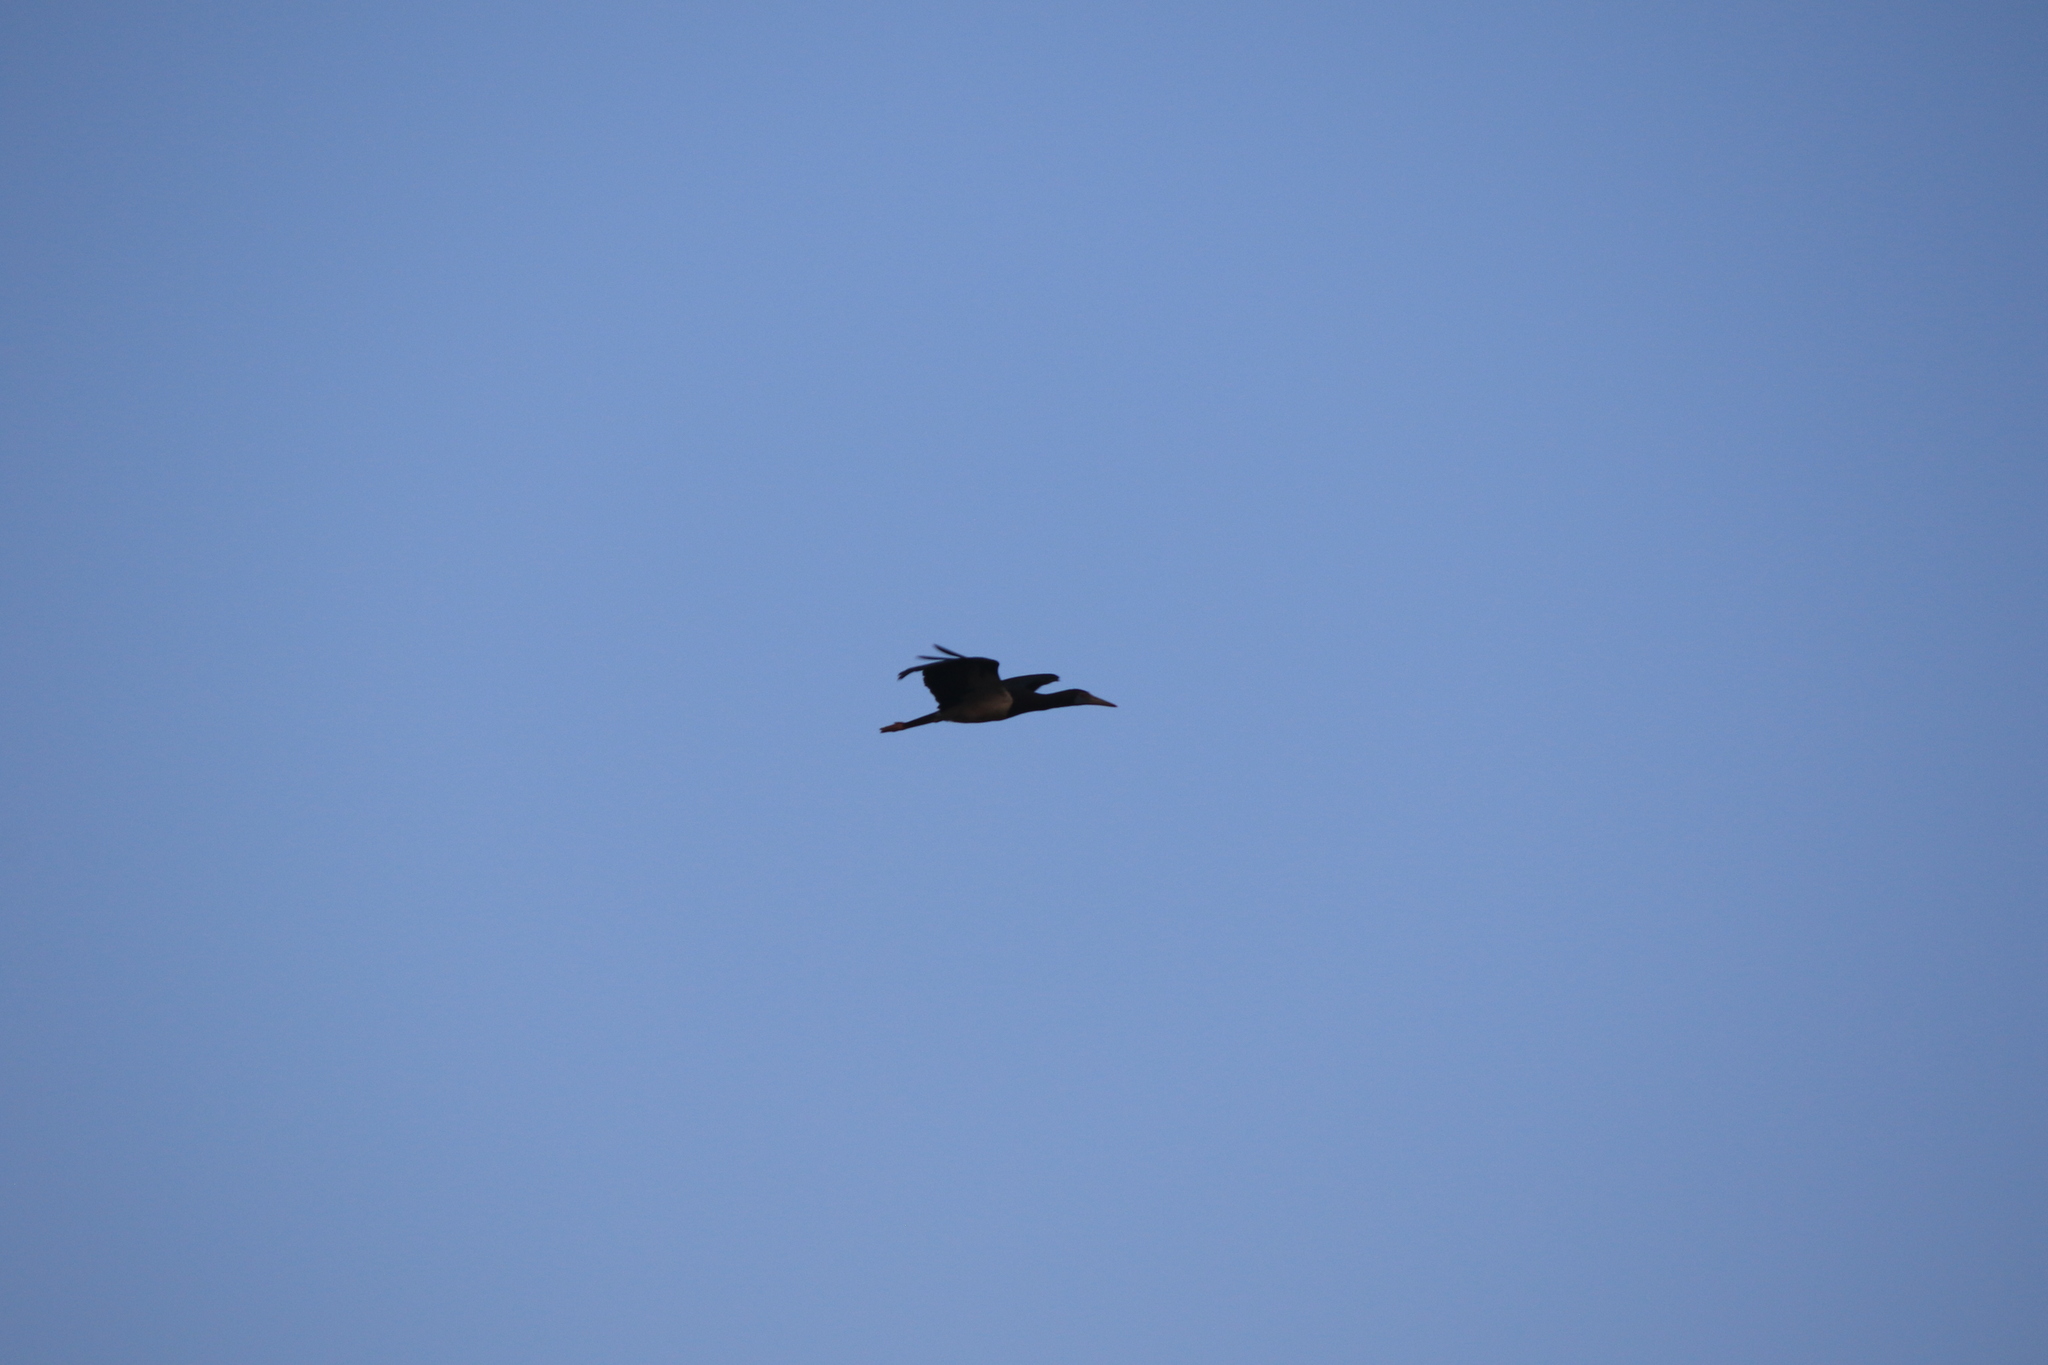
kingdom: Animalia
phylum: Chordata
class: Aves
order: Ciconiiformes
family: Ciconiidae
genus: Ciconia
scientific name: Ciconia abdimii
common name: Abdim's stork
